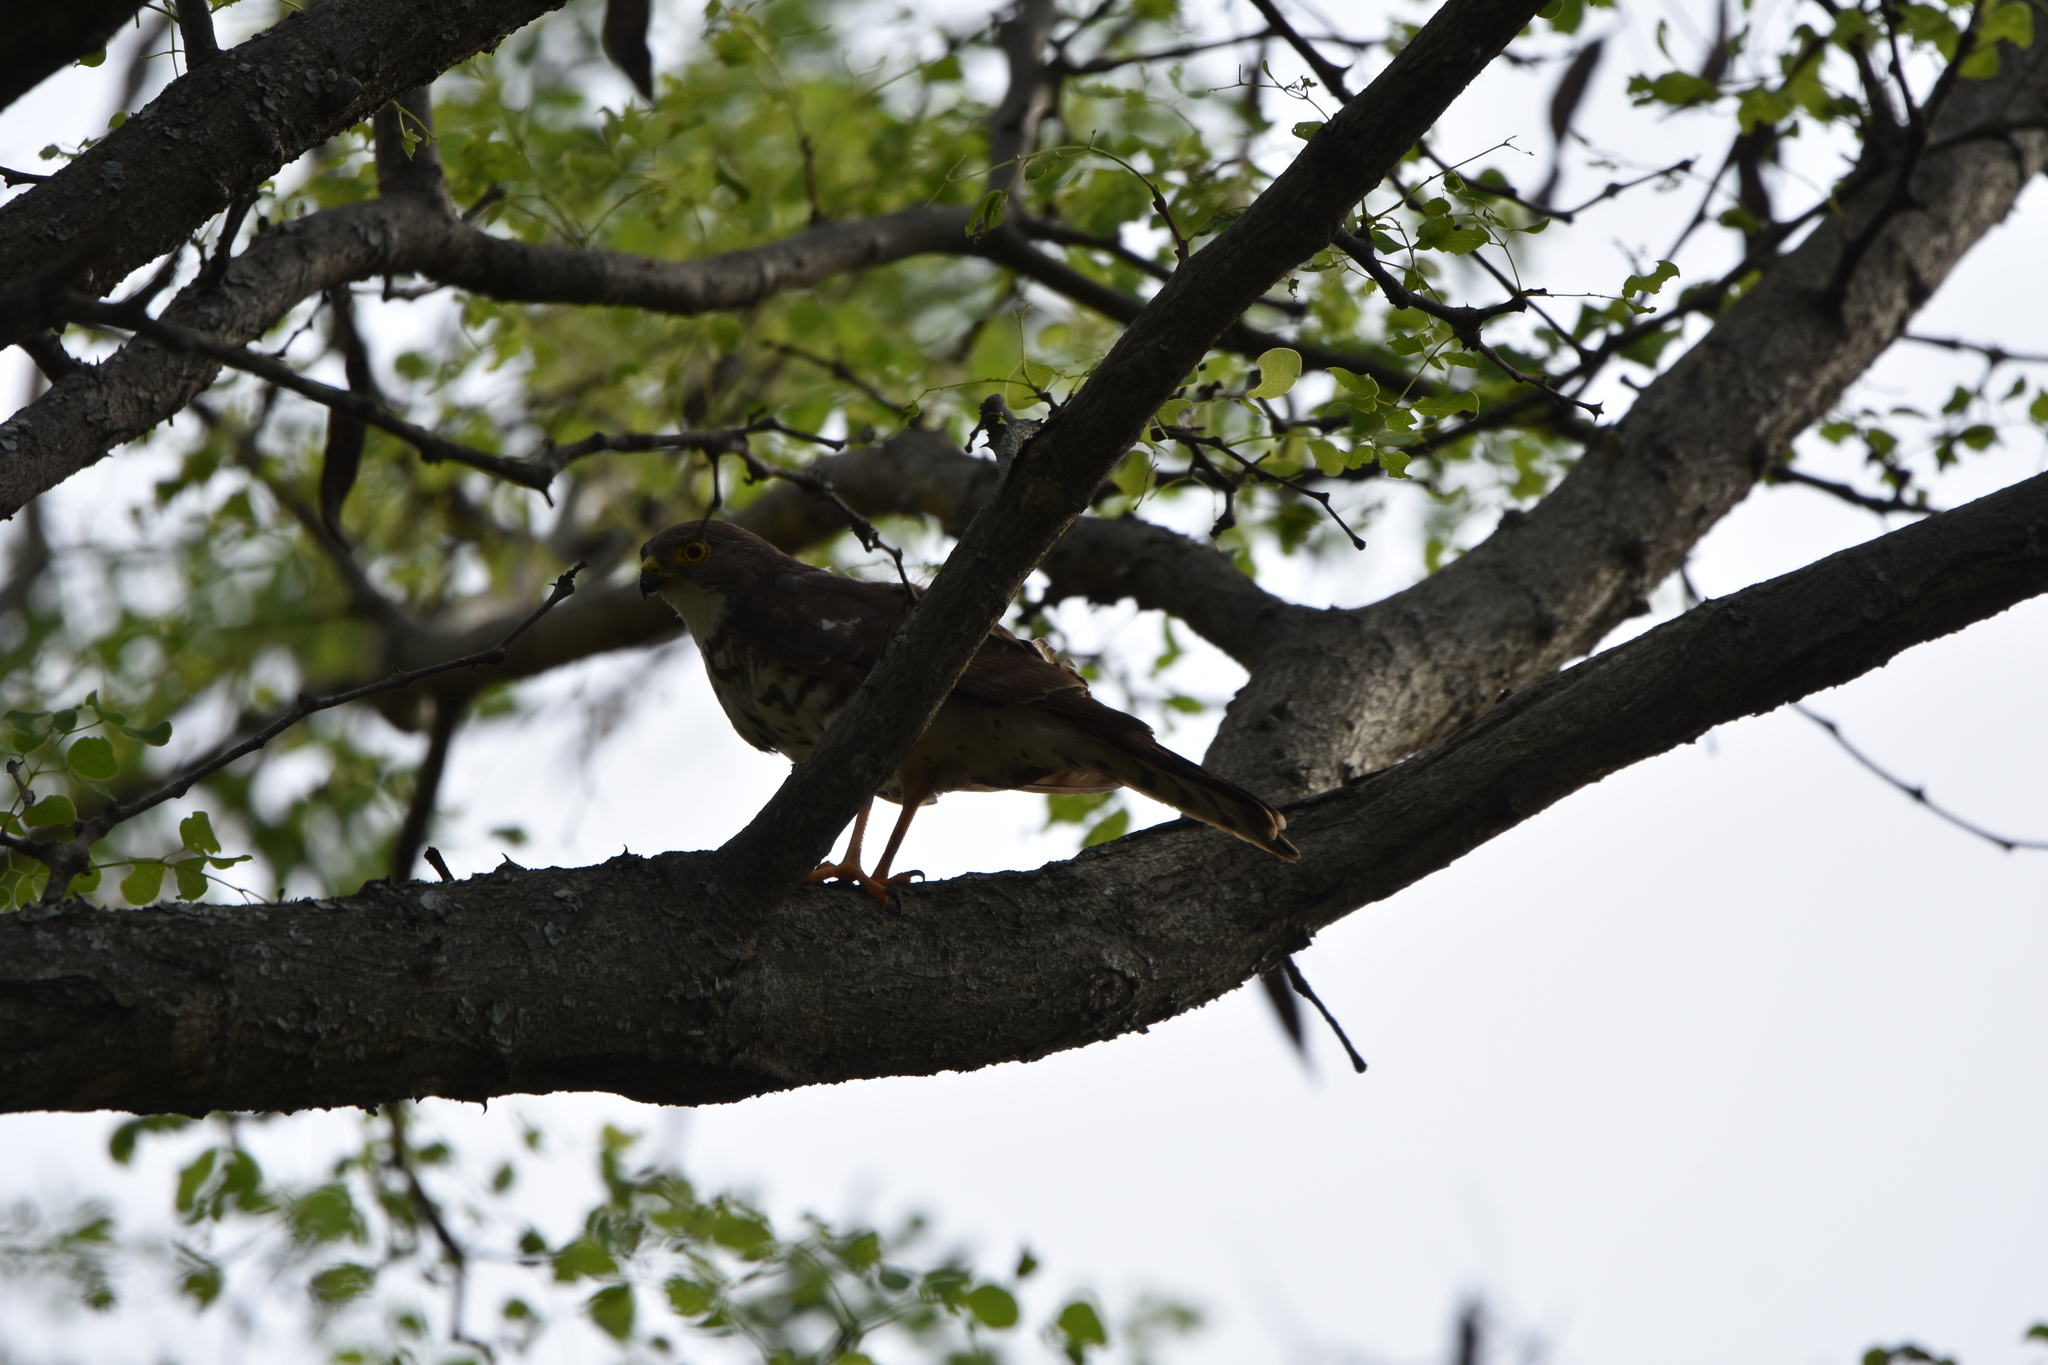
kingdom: Animalia
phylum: Chordata
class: Aves
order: Accipitriformes
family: Accipitridae
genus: Accipiter
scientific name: Accipiter minullus
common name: Little sparrowhawk
